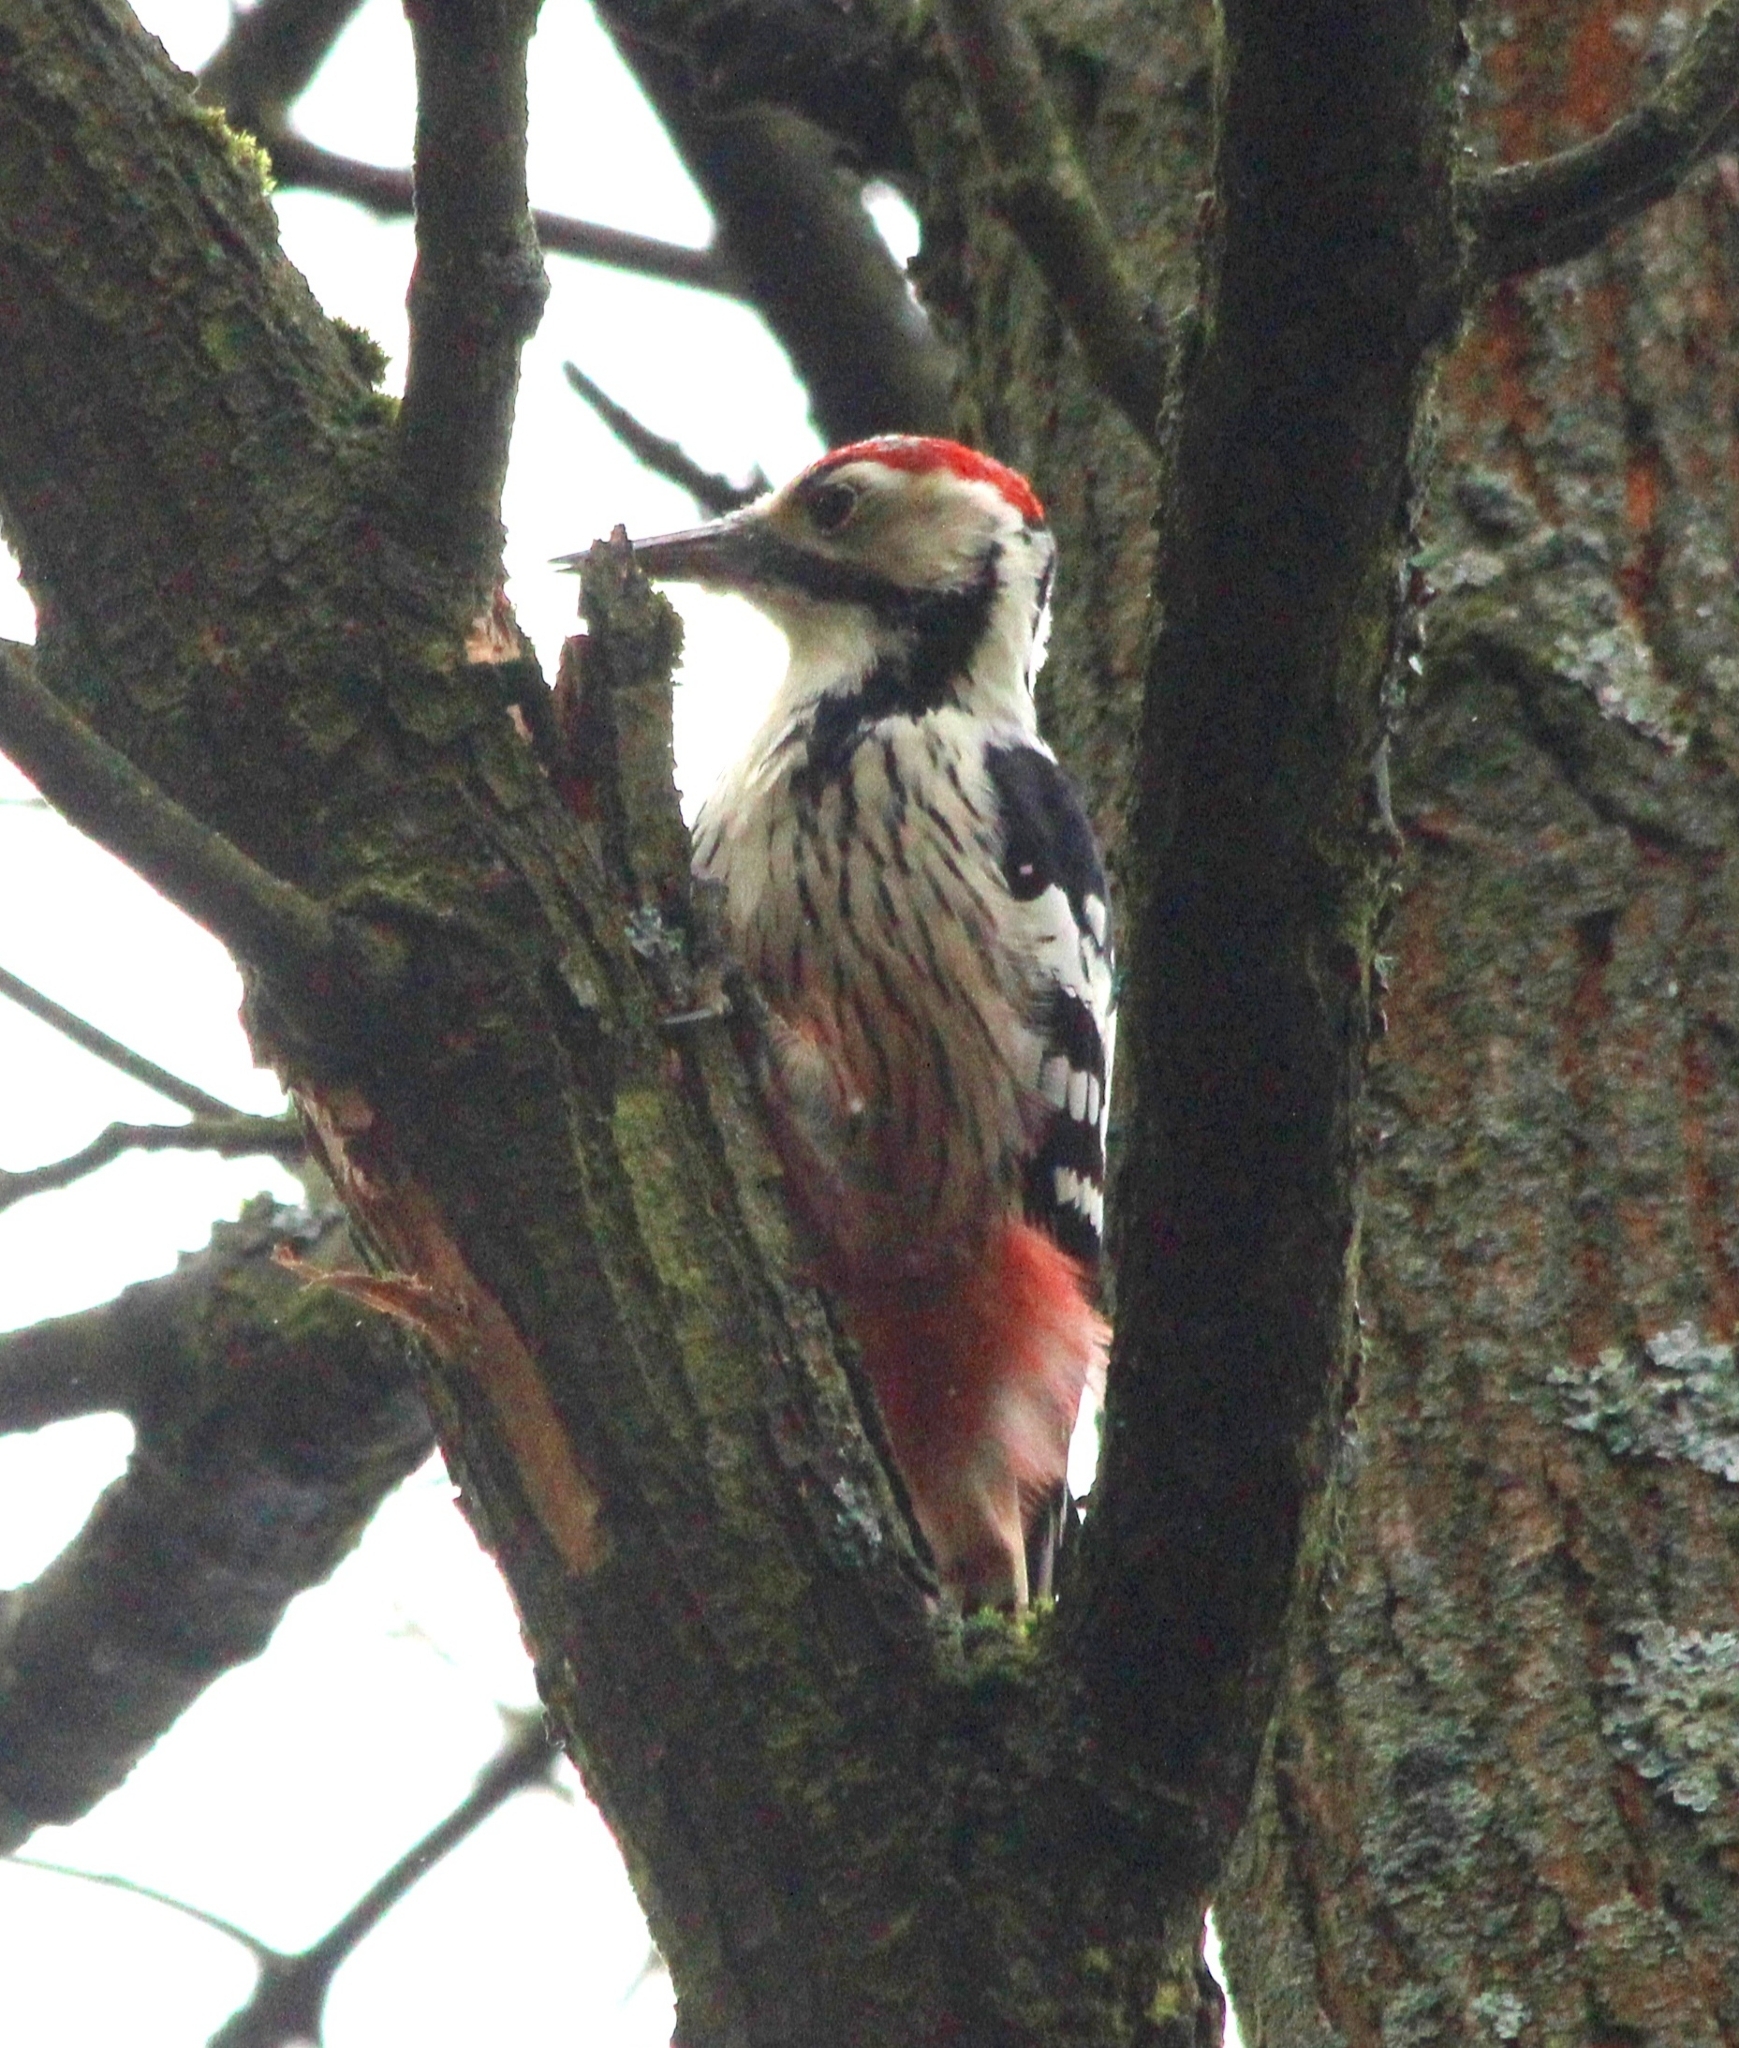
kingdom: Animalia
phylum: Chordata
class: Aves
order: Piciformes
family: Picidae
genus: Dendrocopos
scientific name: Dendrocopos leucotos
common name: White-backed woodpecker
